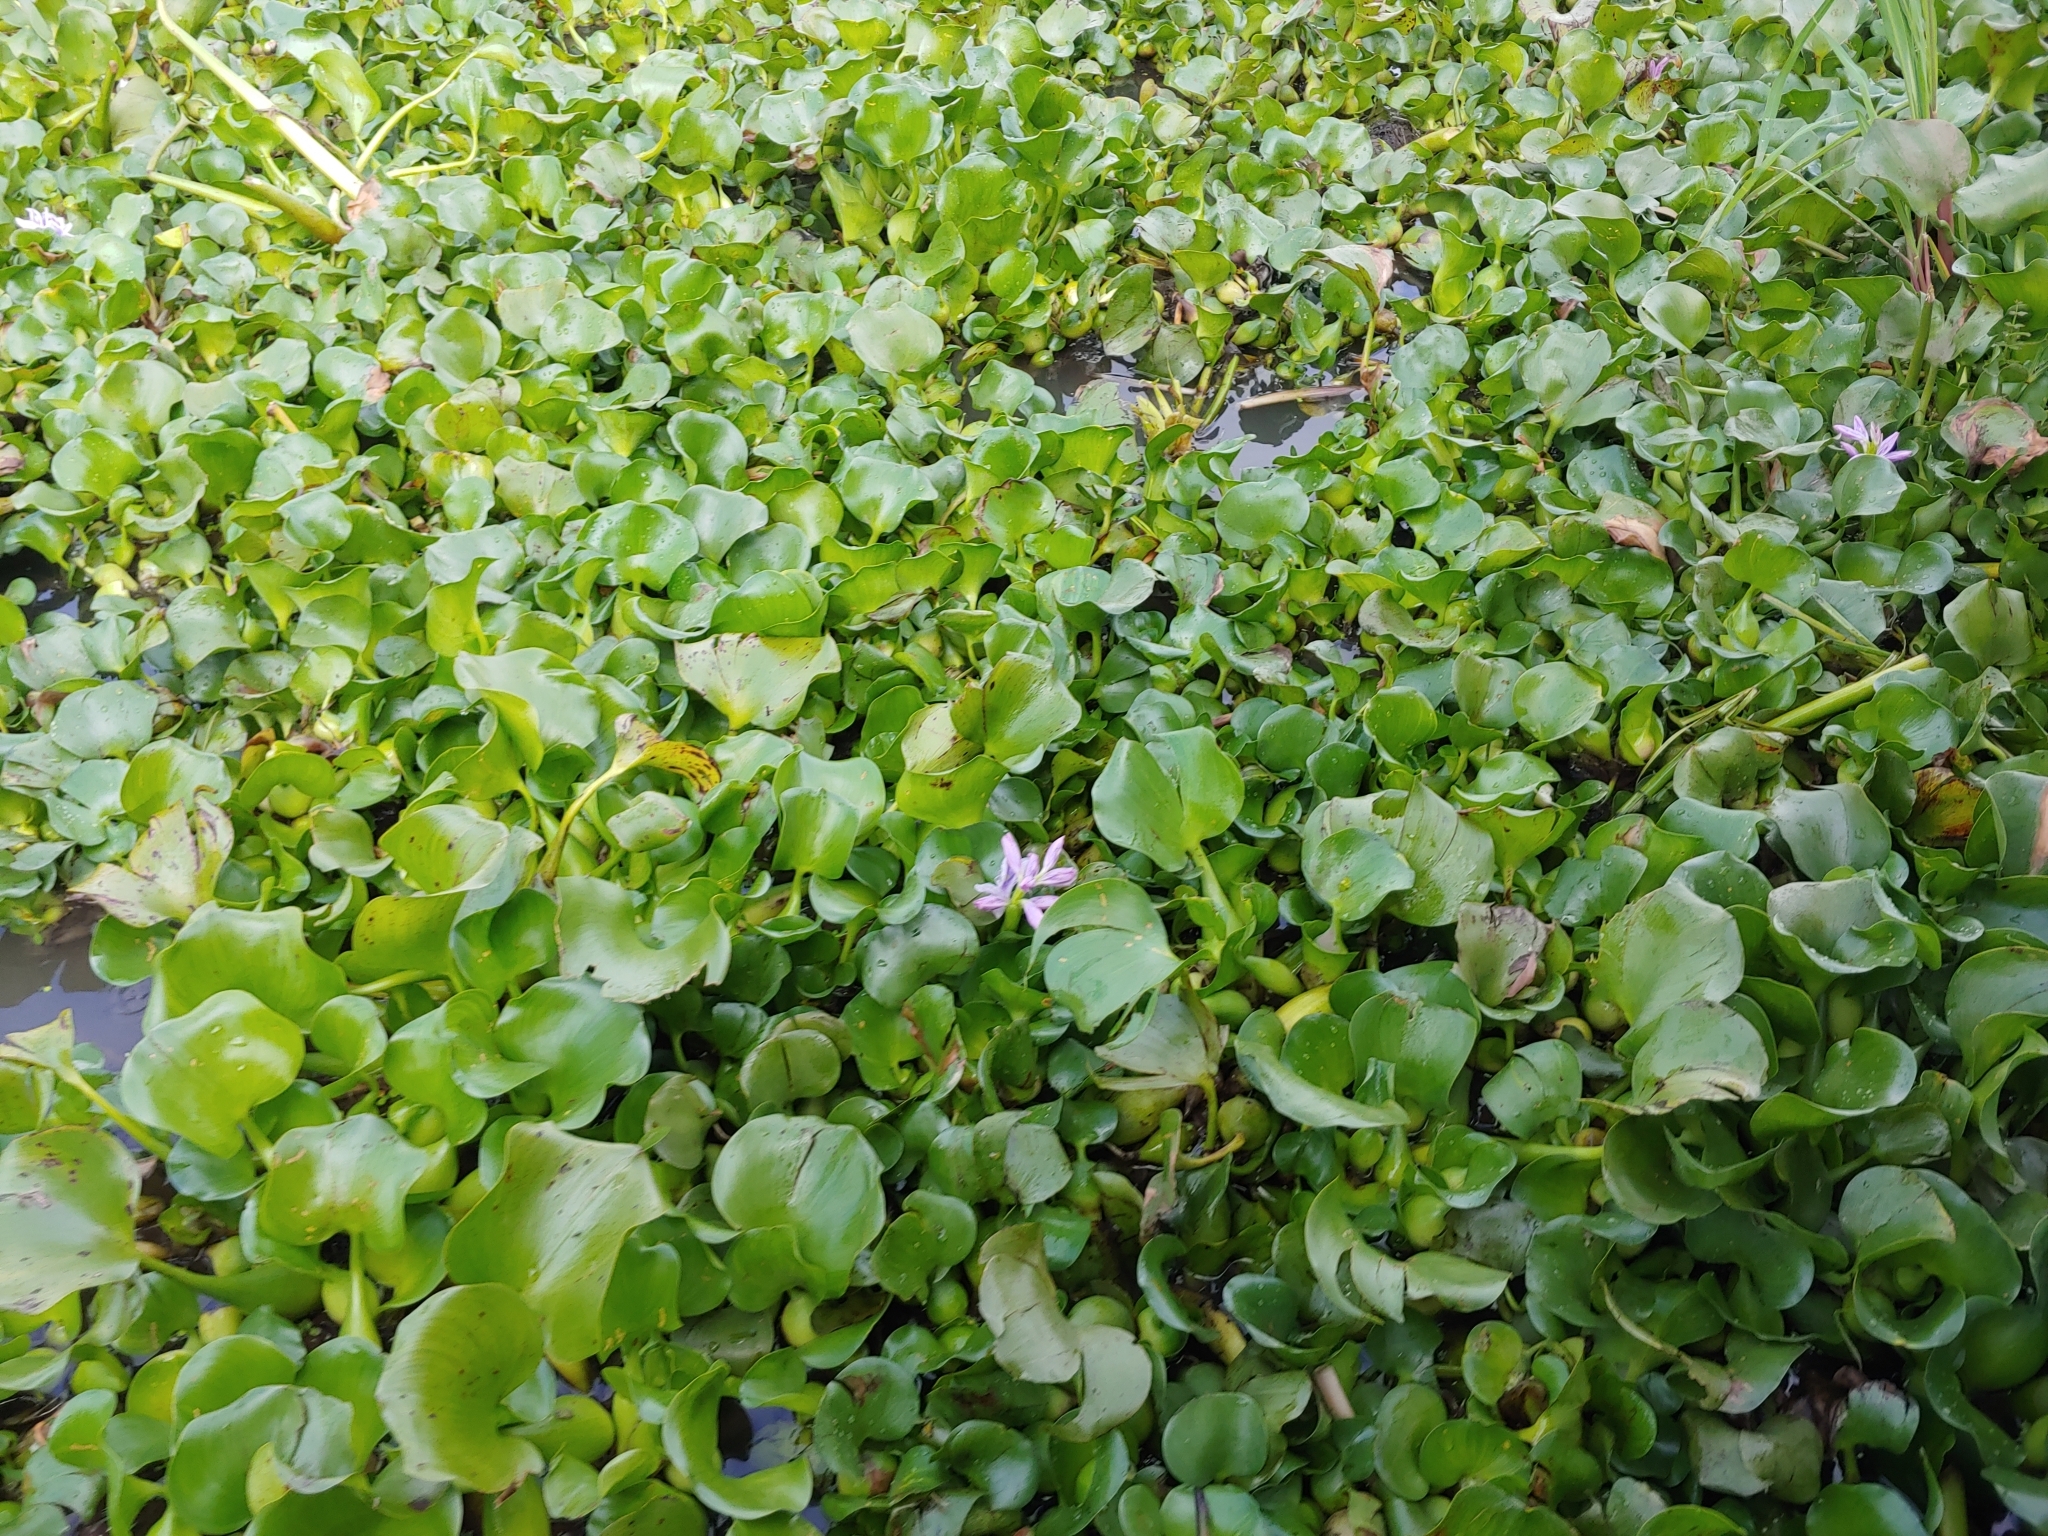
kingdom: Plantae
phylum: Tracheophyta
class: Liliopsida
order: Commelinales
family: Pontederiaceae
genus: Pontederia
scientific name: Pontederia crassipes
